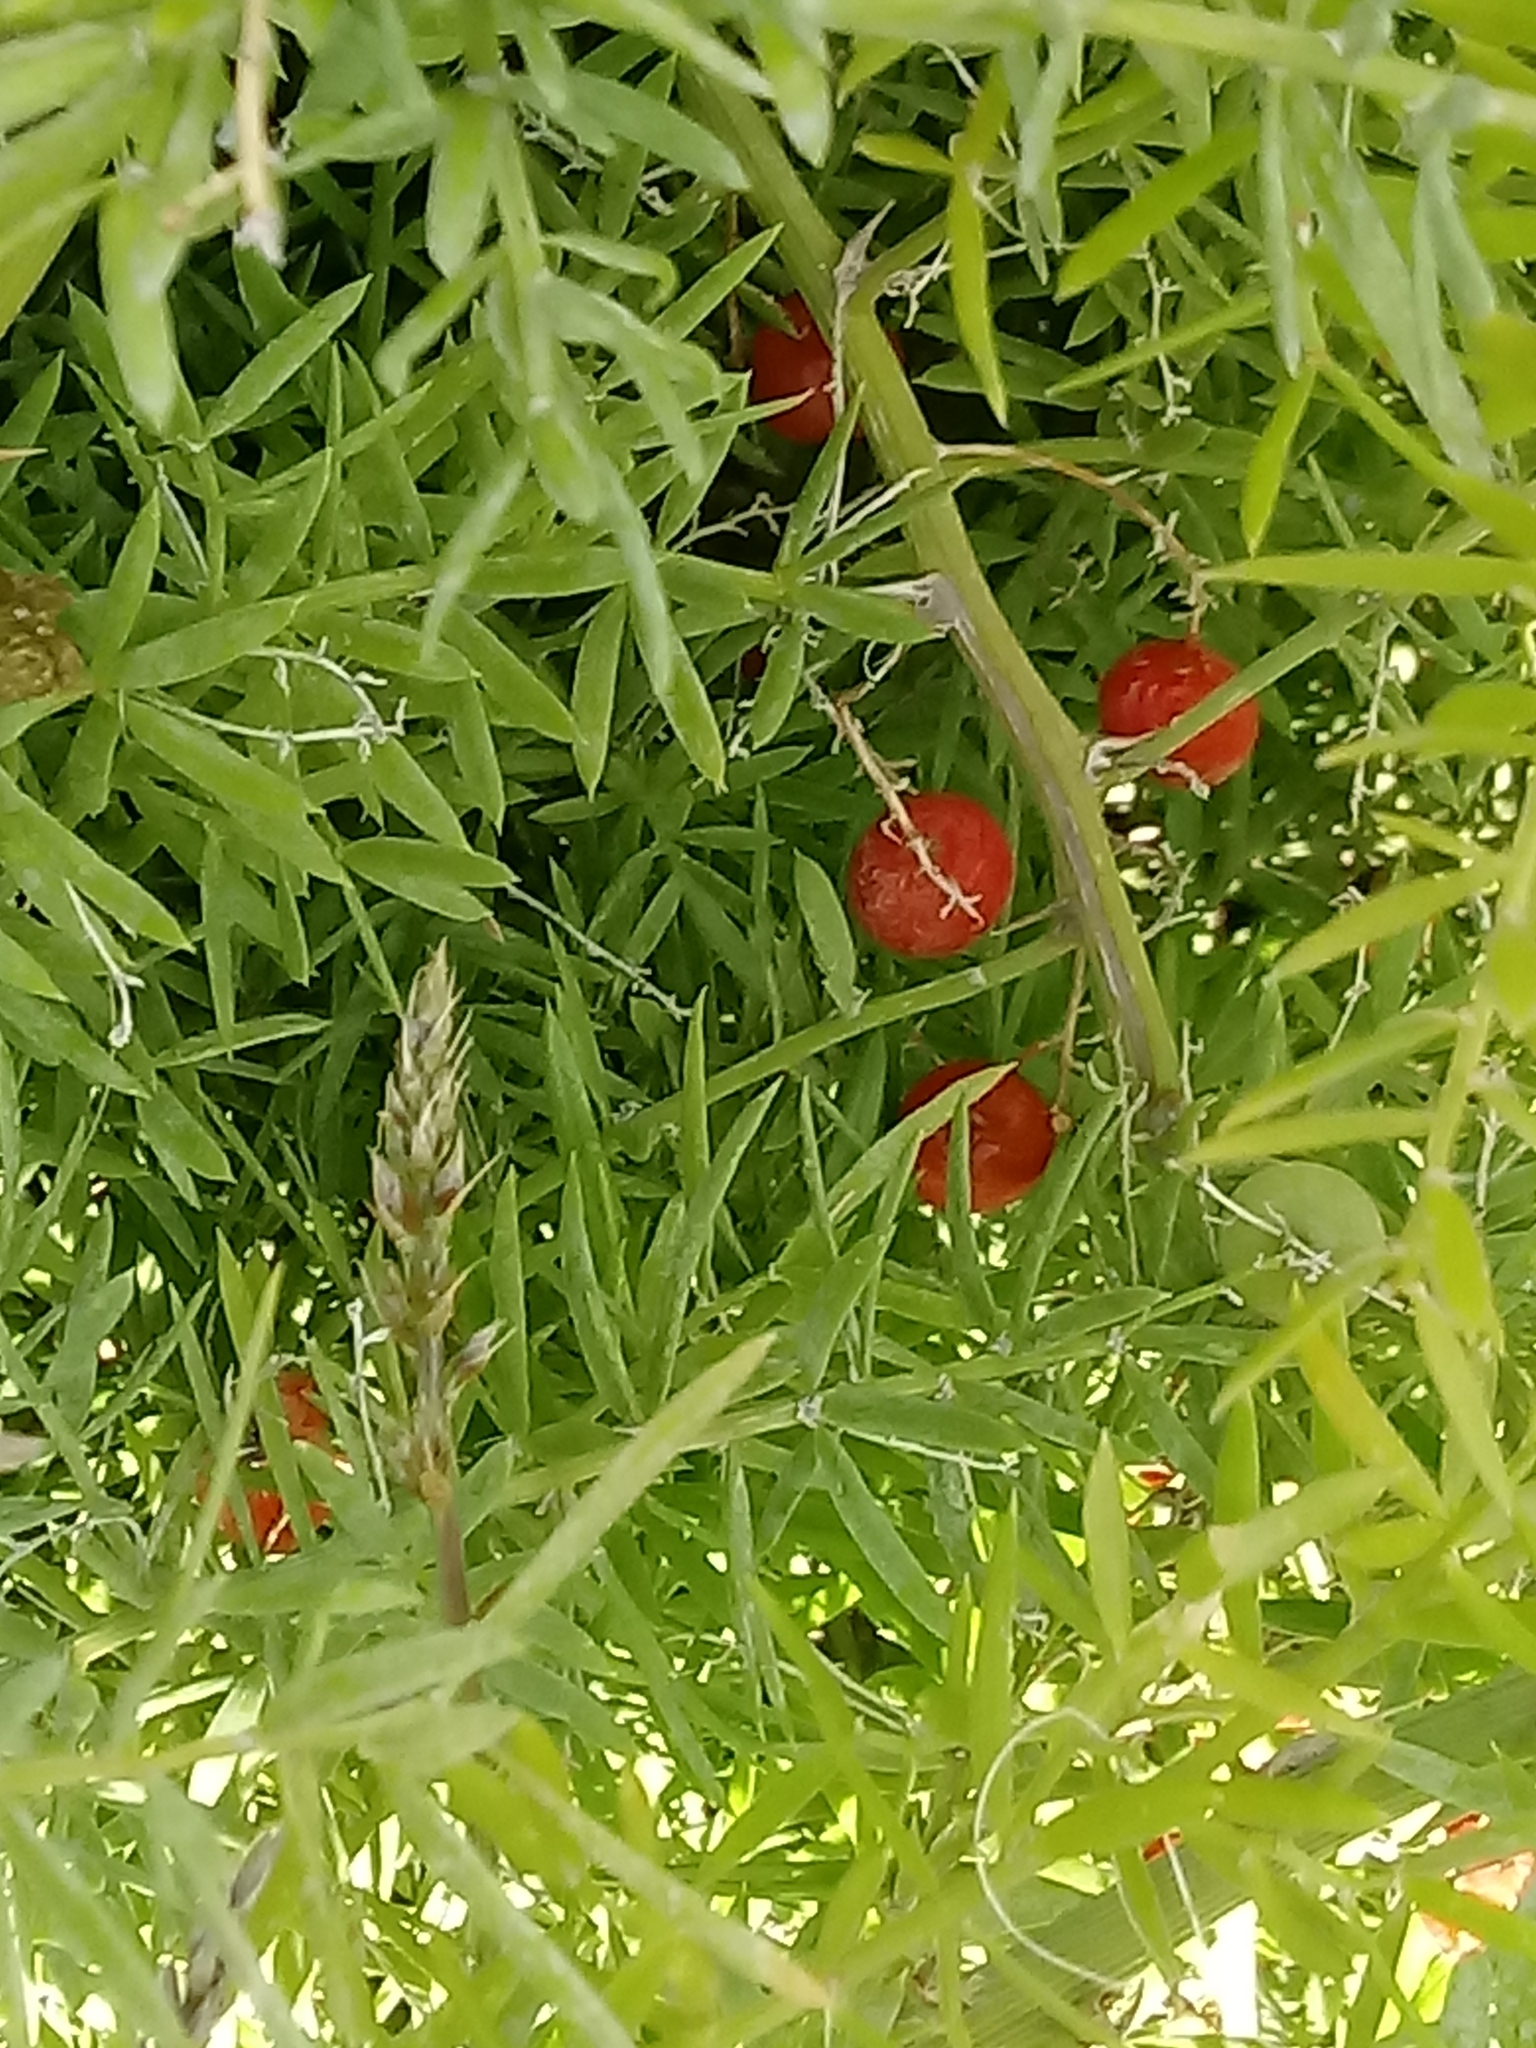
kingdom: Plantae
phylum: Tracheophyta
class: Liliopsida
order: Asparagales
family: Asparagaceae
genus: Asparagus
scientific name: Asparagus aethiopicus
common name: Sprenger's asparagus fern
